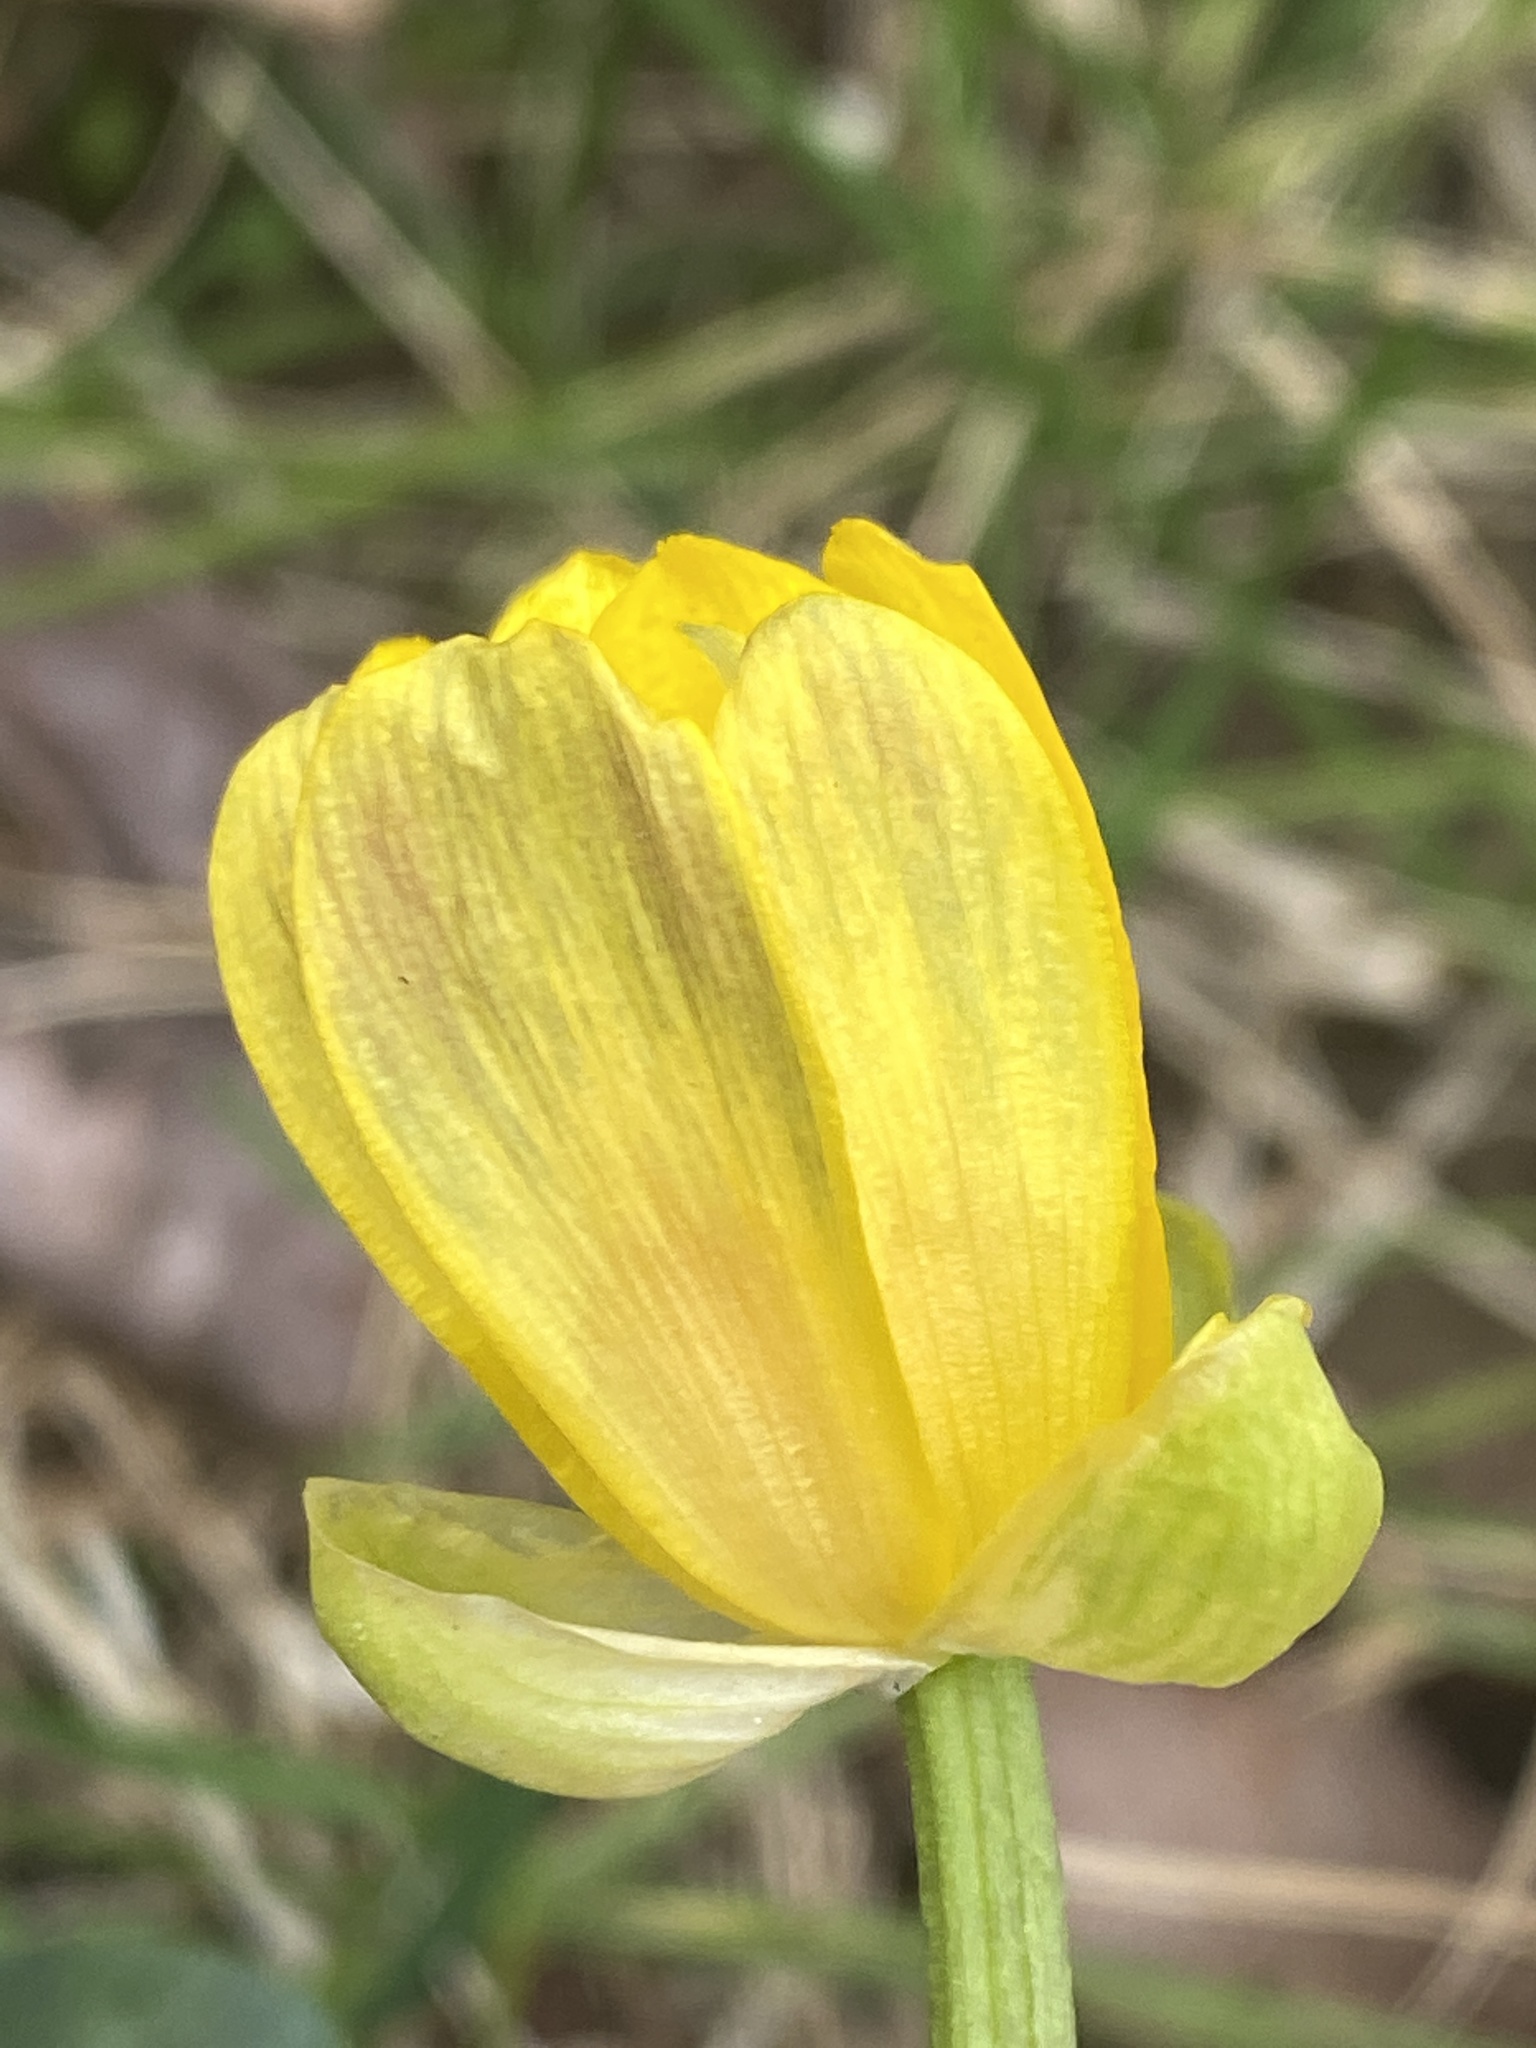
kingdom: Plantae
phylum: Tracheophyta
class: Magnoliopsida
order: Ranunculales
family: Ranunculaceae
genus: Ficaria
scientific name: Ficaria verna
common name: Lesser celandine
